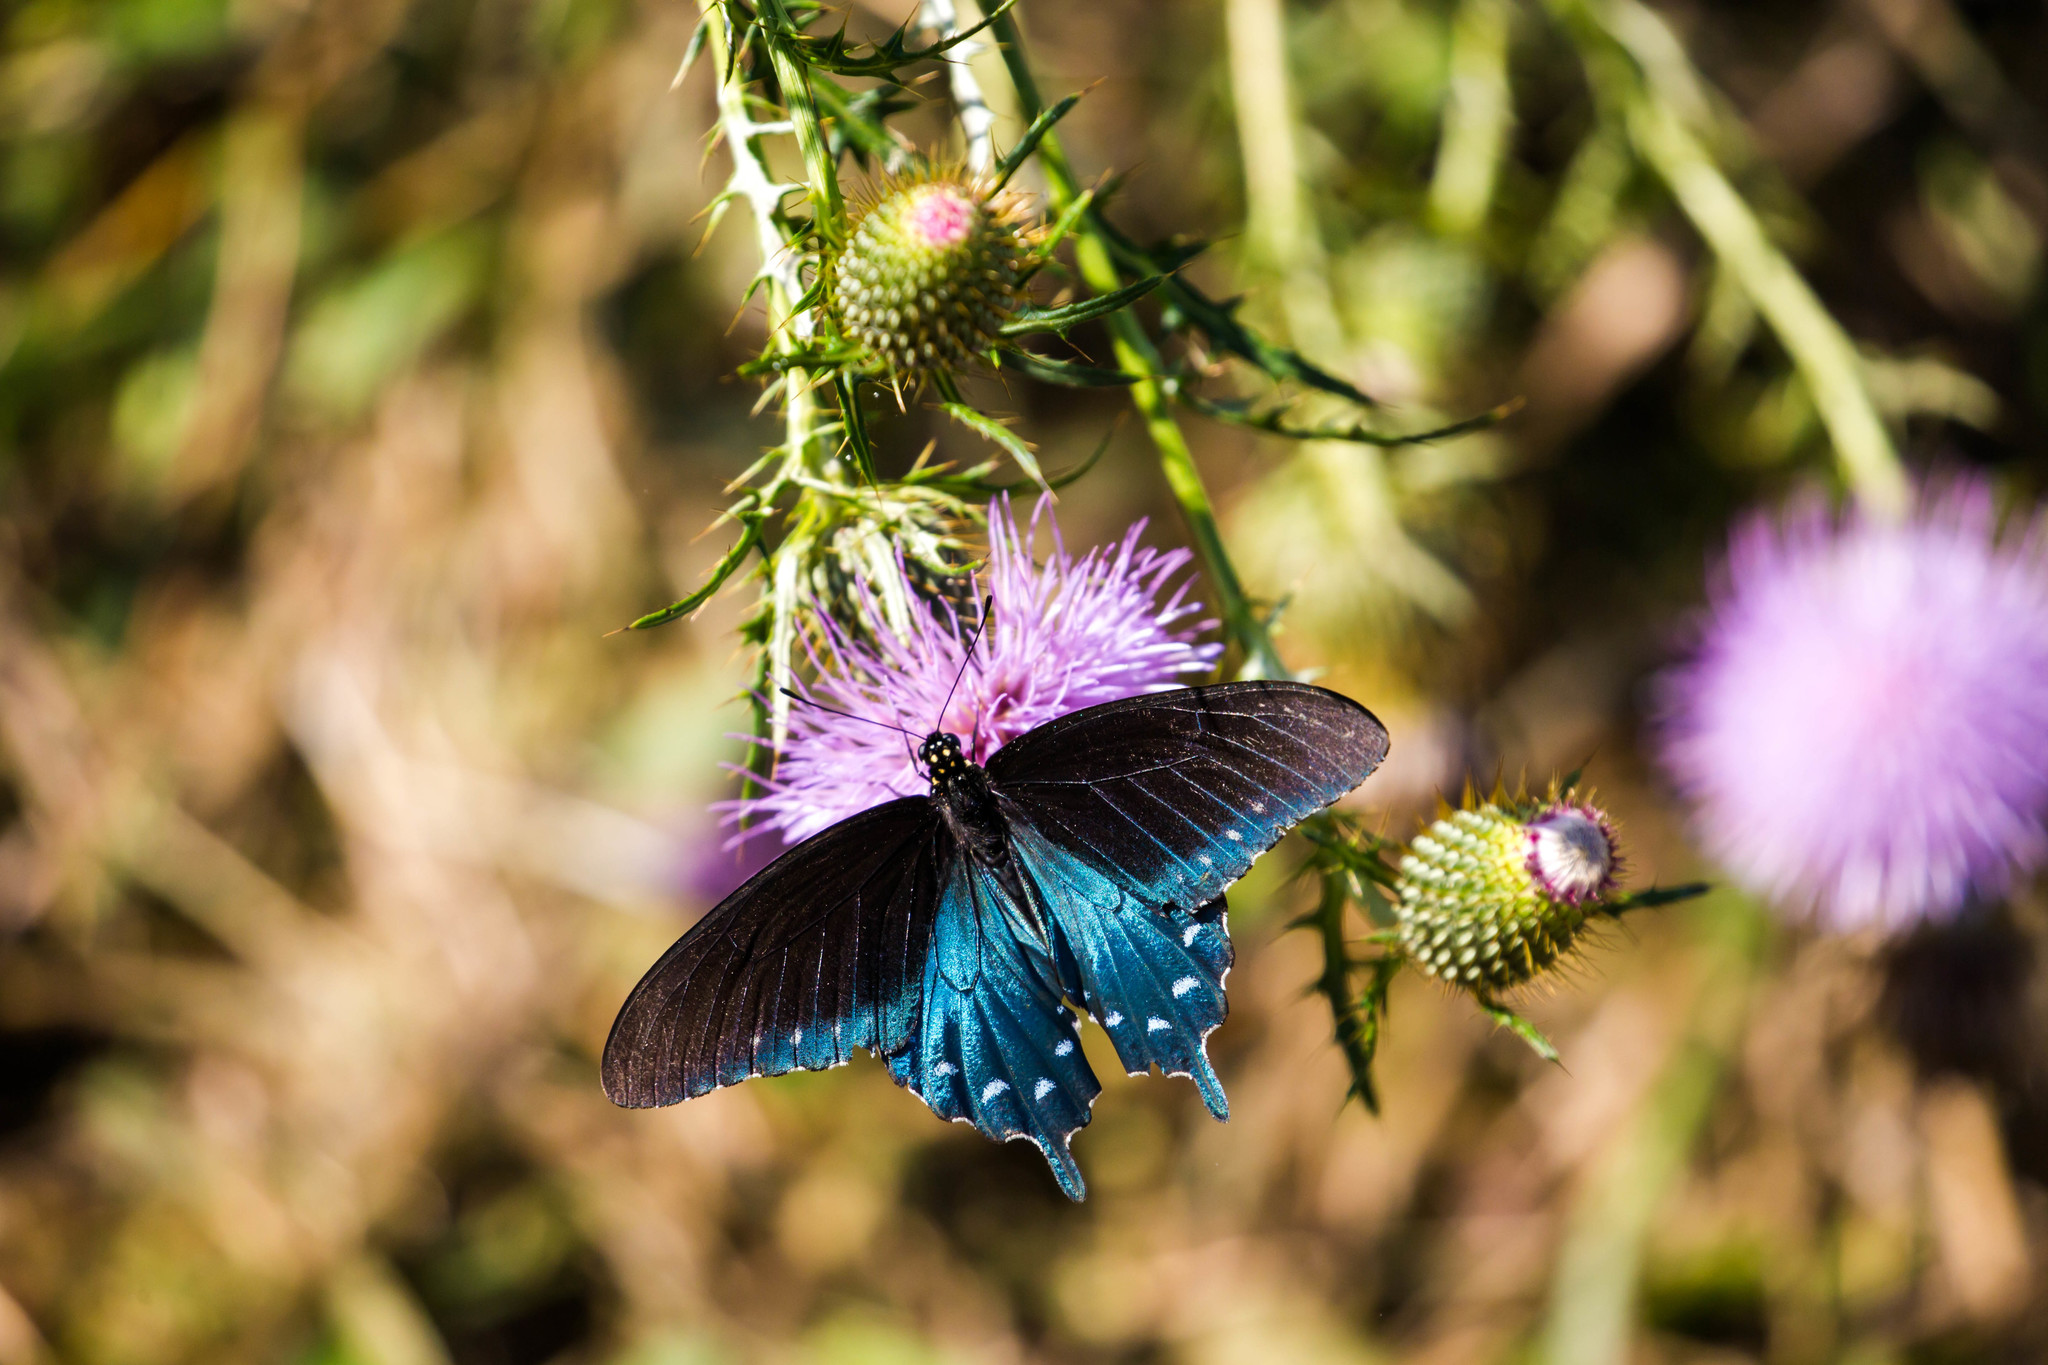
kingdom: Animalia
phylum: Arthropoda
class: Insecta
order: Lepidoptera
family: Papilionidae
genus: Battus
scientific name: Battus philenor
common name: Pipevine swallowtail
